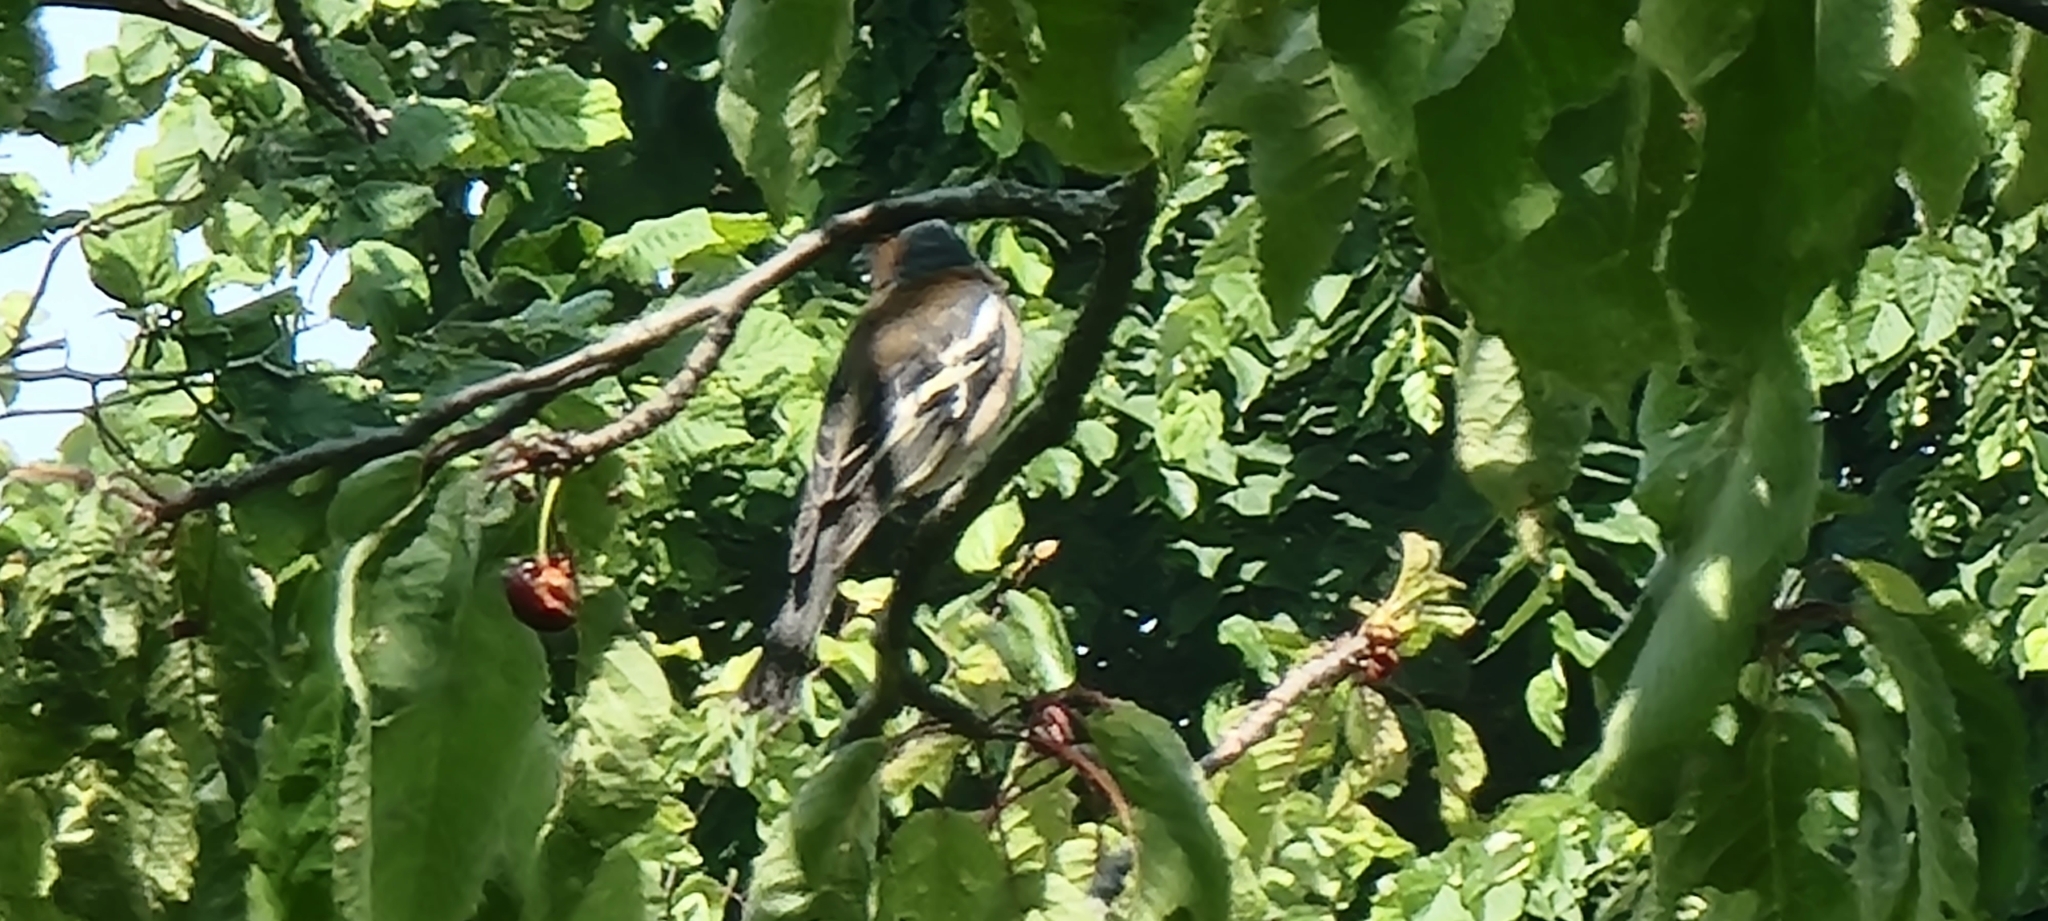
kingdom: Animalia
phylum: Chordata
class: Aves
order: Passeriformes
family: Fringillidae
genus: Fringilla
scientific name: Fringilla coelebs
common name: Common chaffinch
